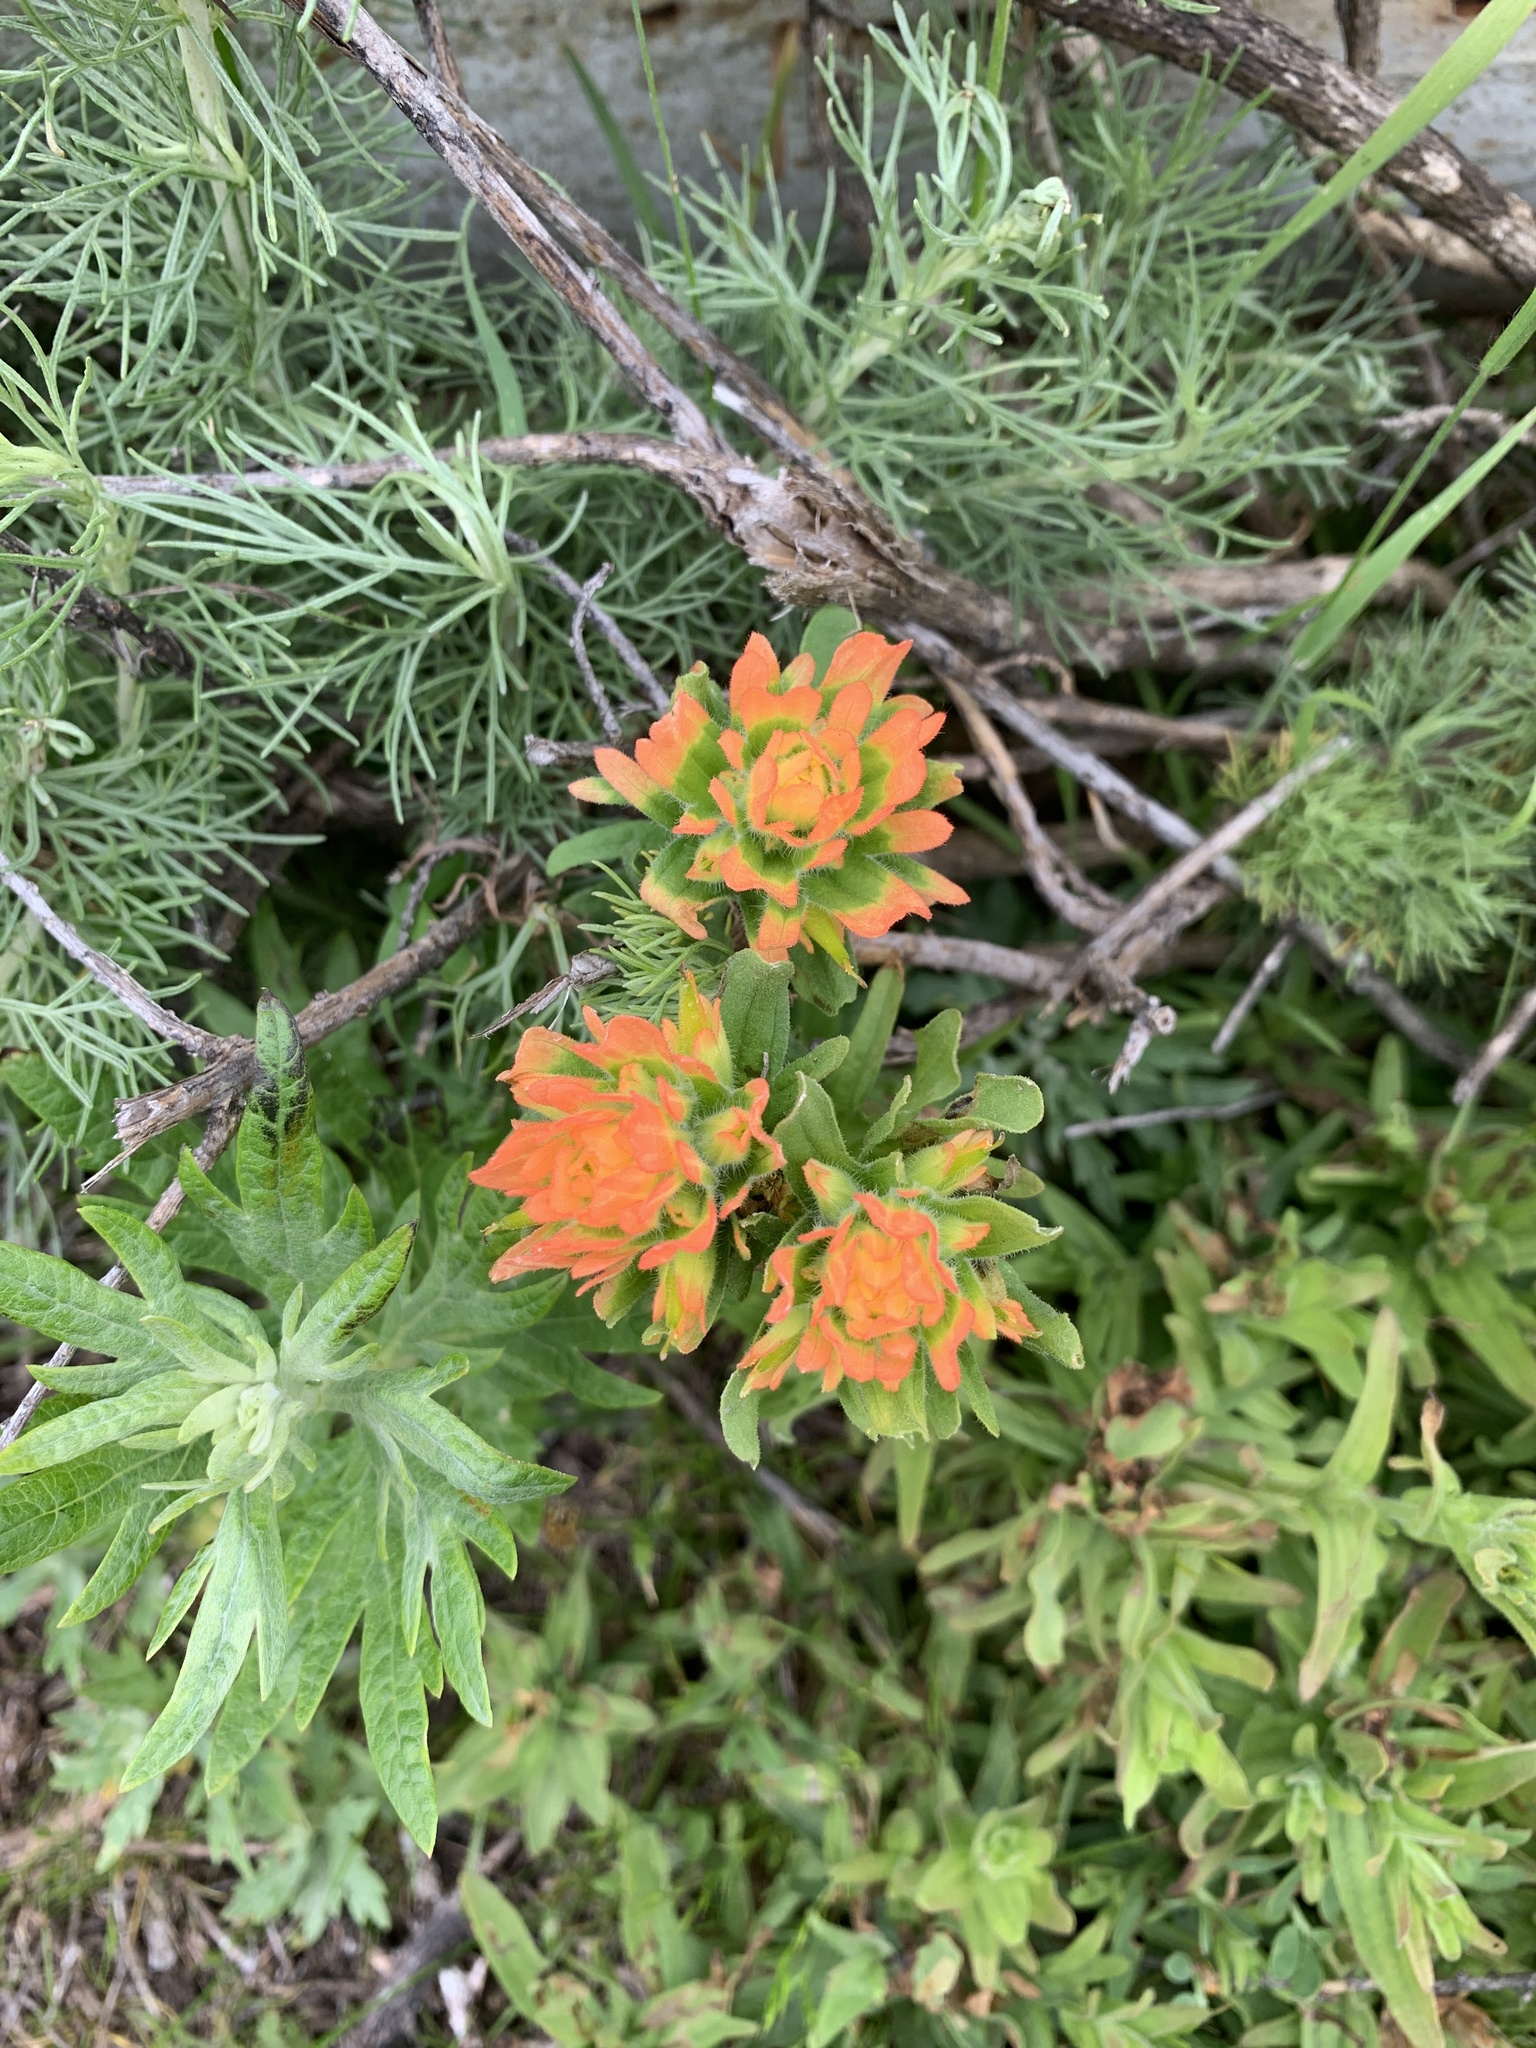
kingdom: Plantae
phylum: Tracheophyta
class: Magnoliopsida
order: Lamiales
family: Orobanchaceae
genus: Castilleja
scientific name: Castilleja wightii
